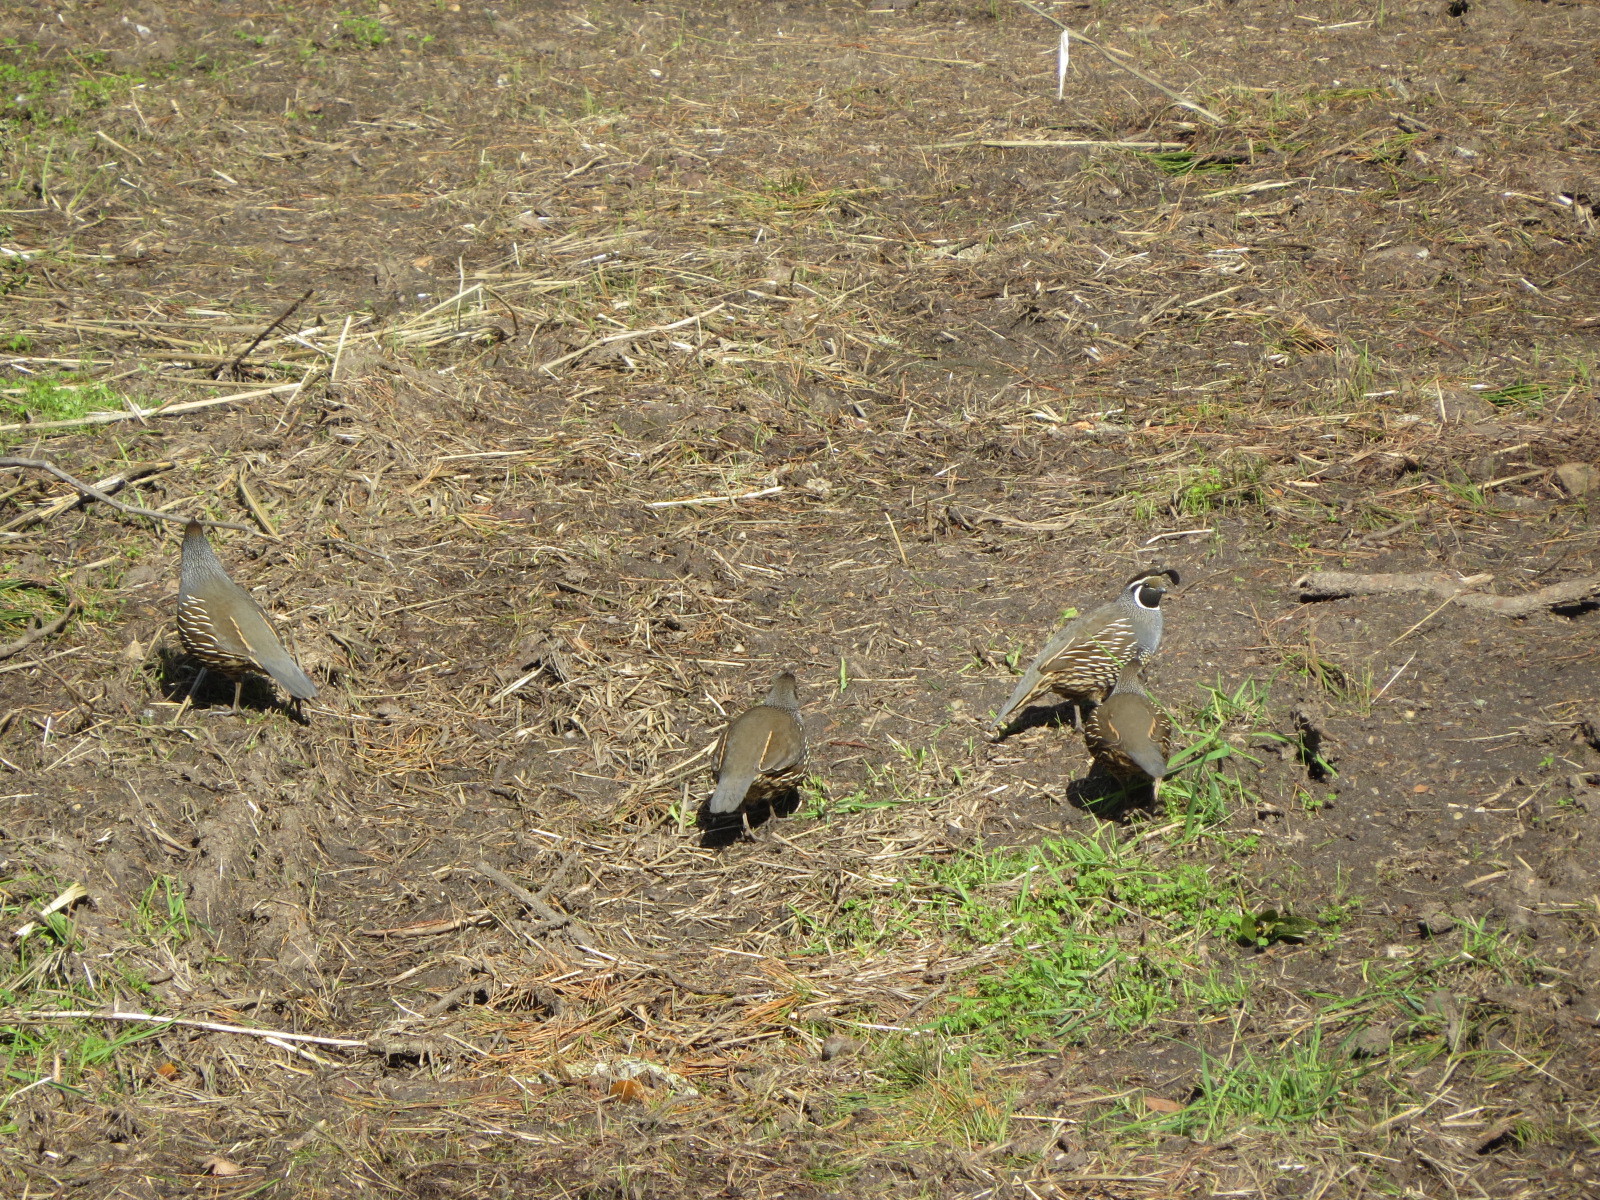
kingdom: Animalia
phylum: Chordata
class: Aves
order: Galliformes
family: Odontophoridae
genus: Callipepla
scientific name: Callipepla californica
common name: California quail
